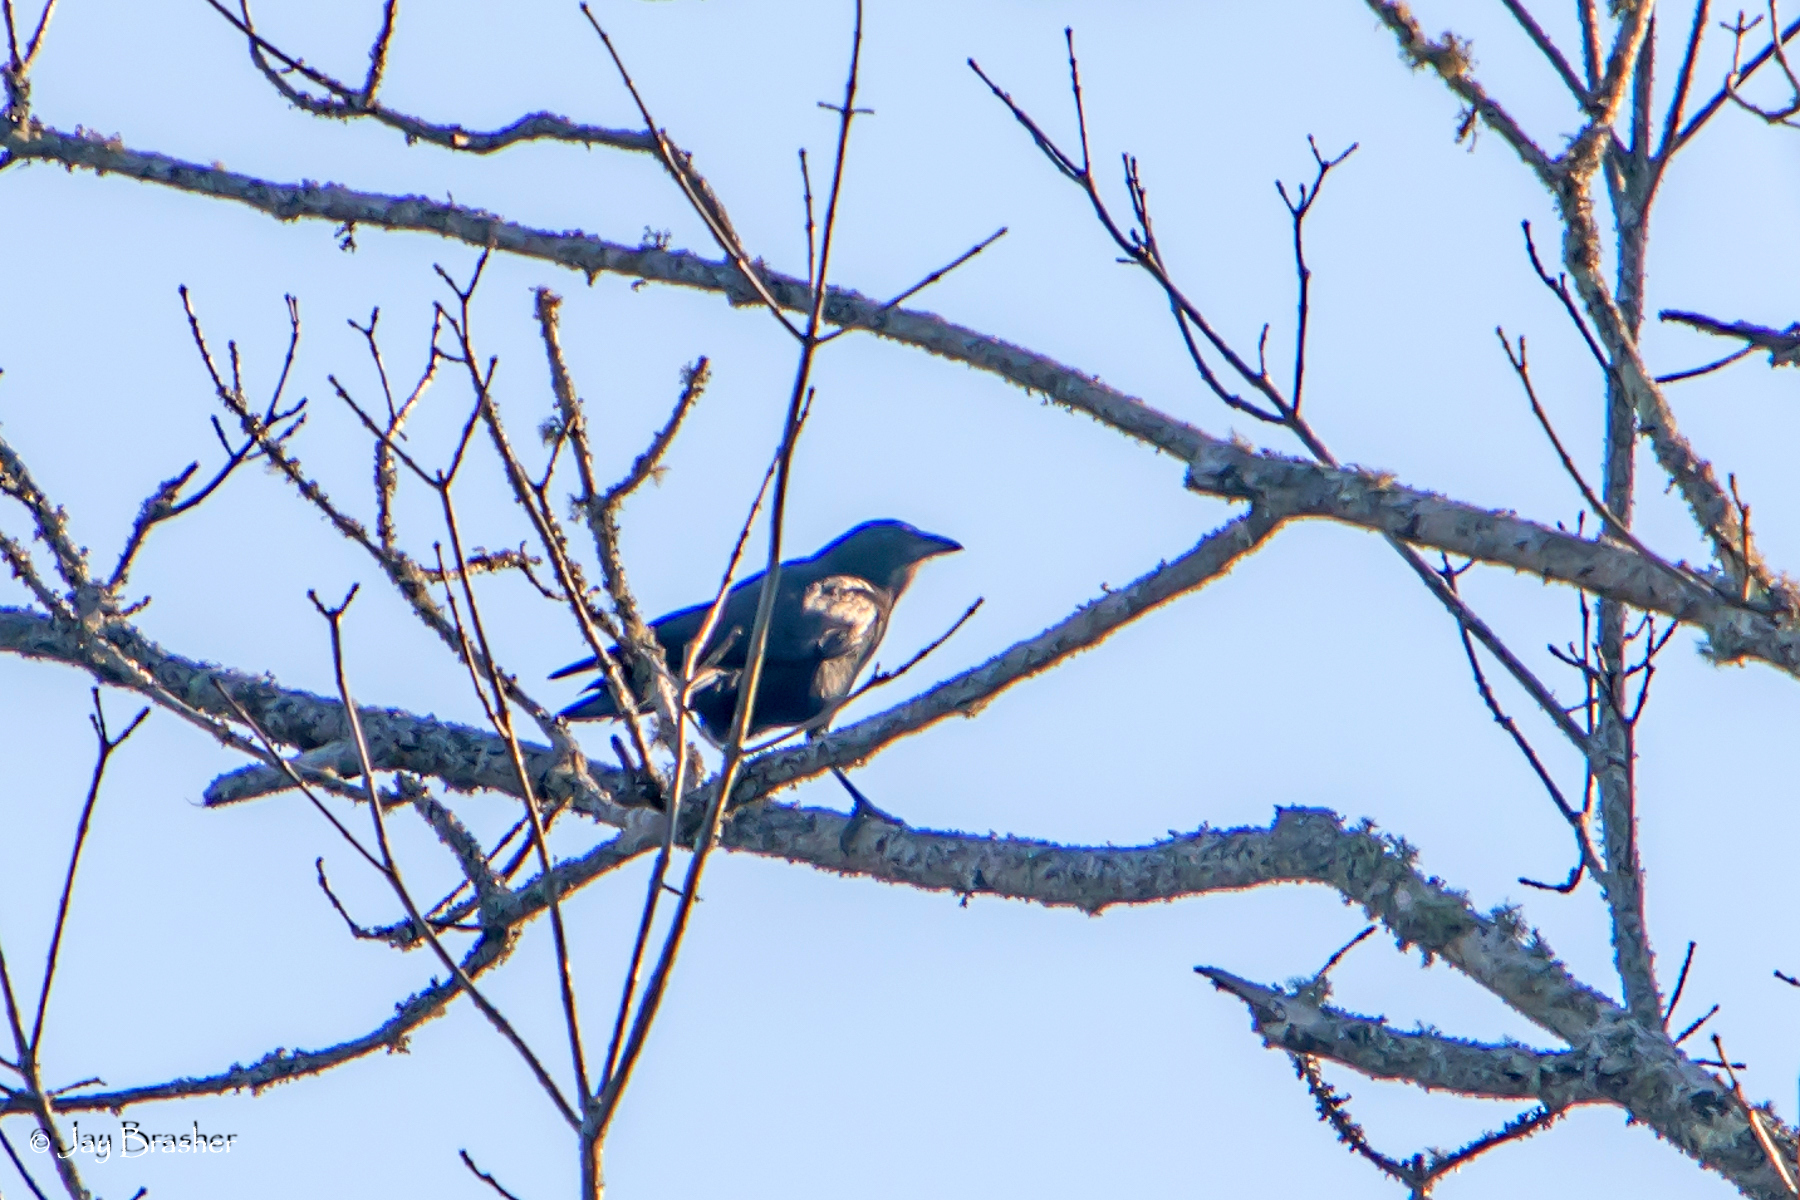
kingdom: Animalia
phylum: Chordata
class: Aves
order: Passeriformes
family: Corvidae
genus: Corvus
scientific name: Corvus brachyrhynchos
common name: American crow
